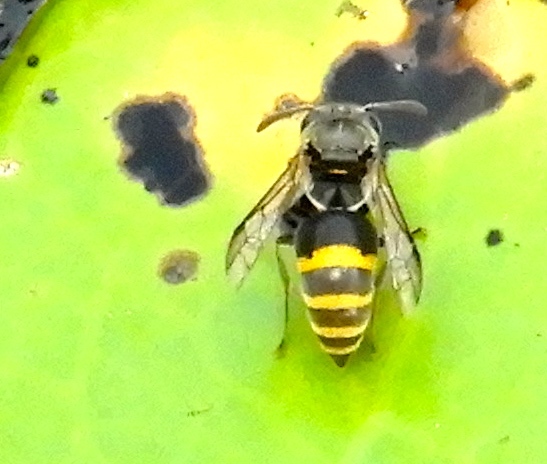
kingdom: Animalia
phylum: Arthropoda
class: Insecta
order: Hymenoptera
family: Vespidae
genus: Brachygastra
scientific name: Brachygastra azteca
